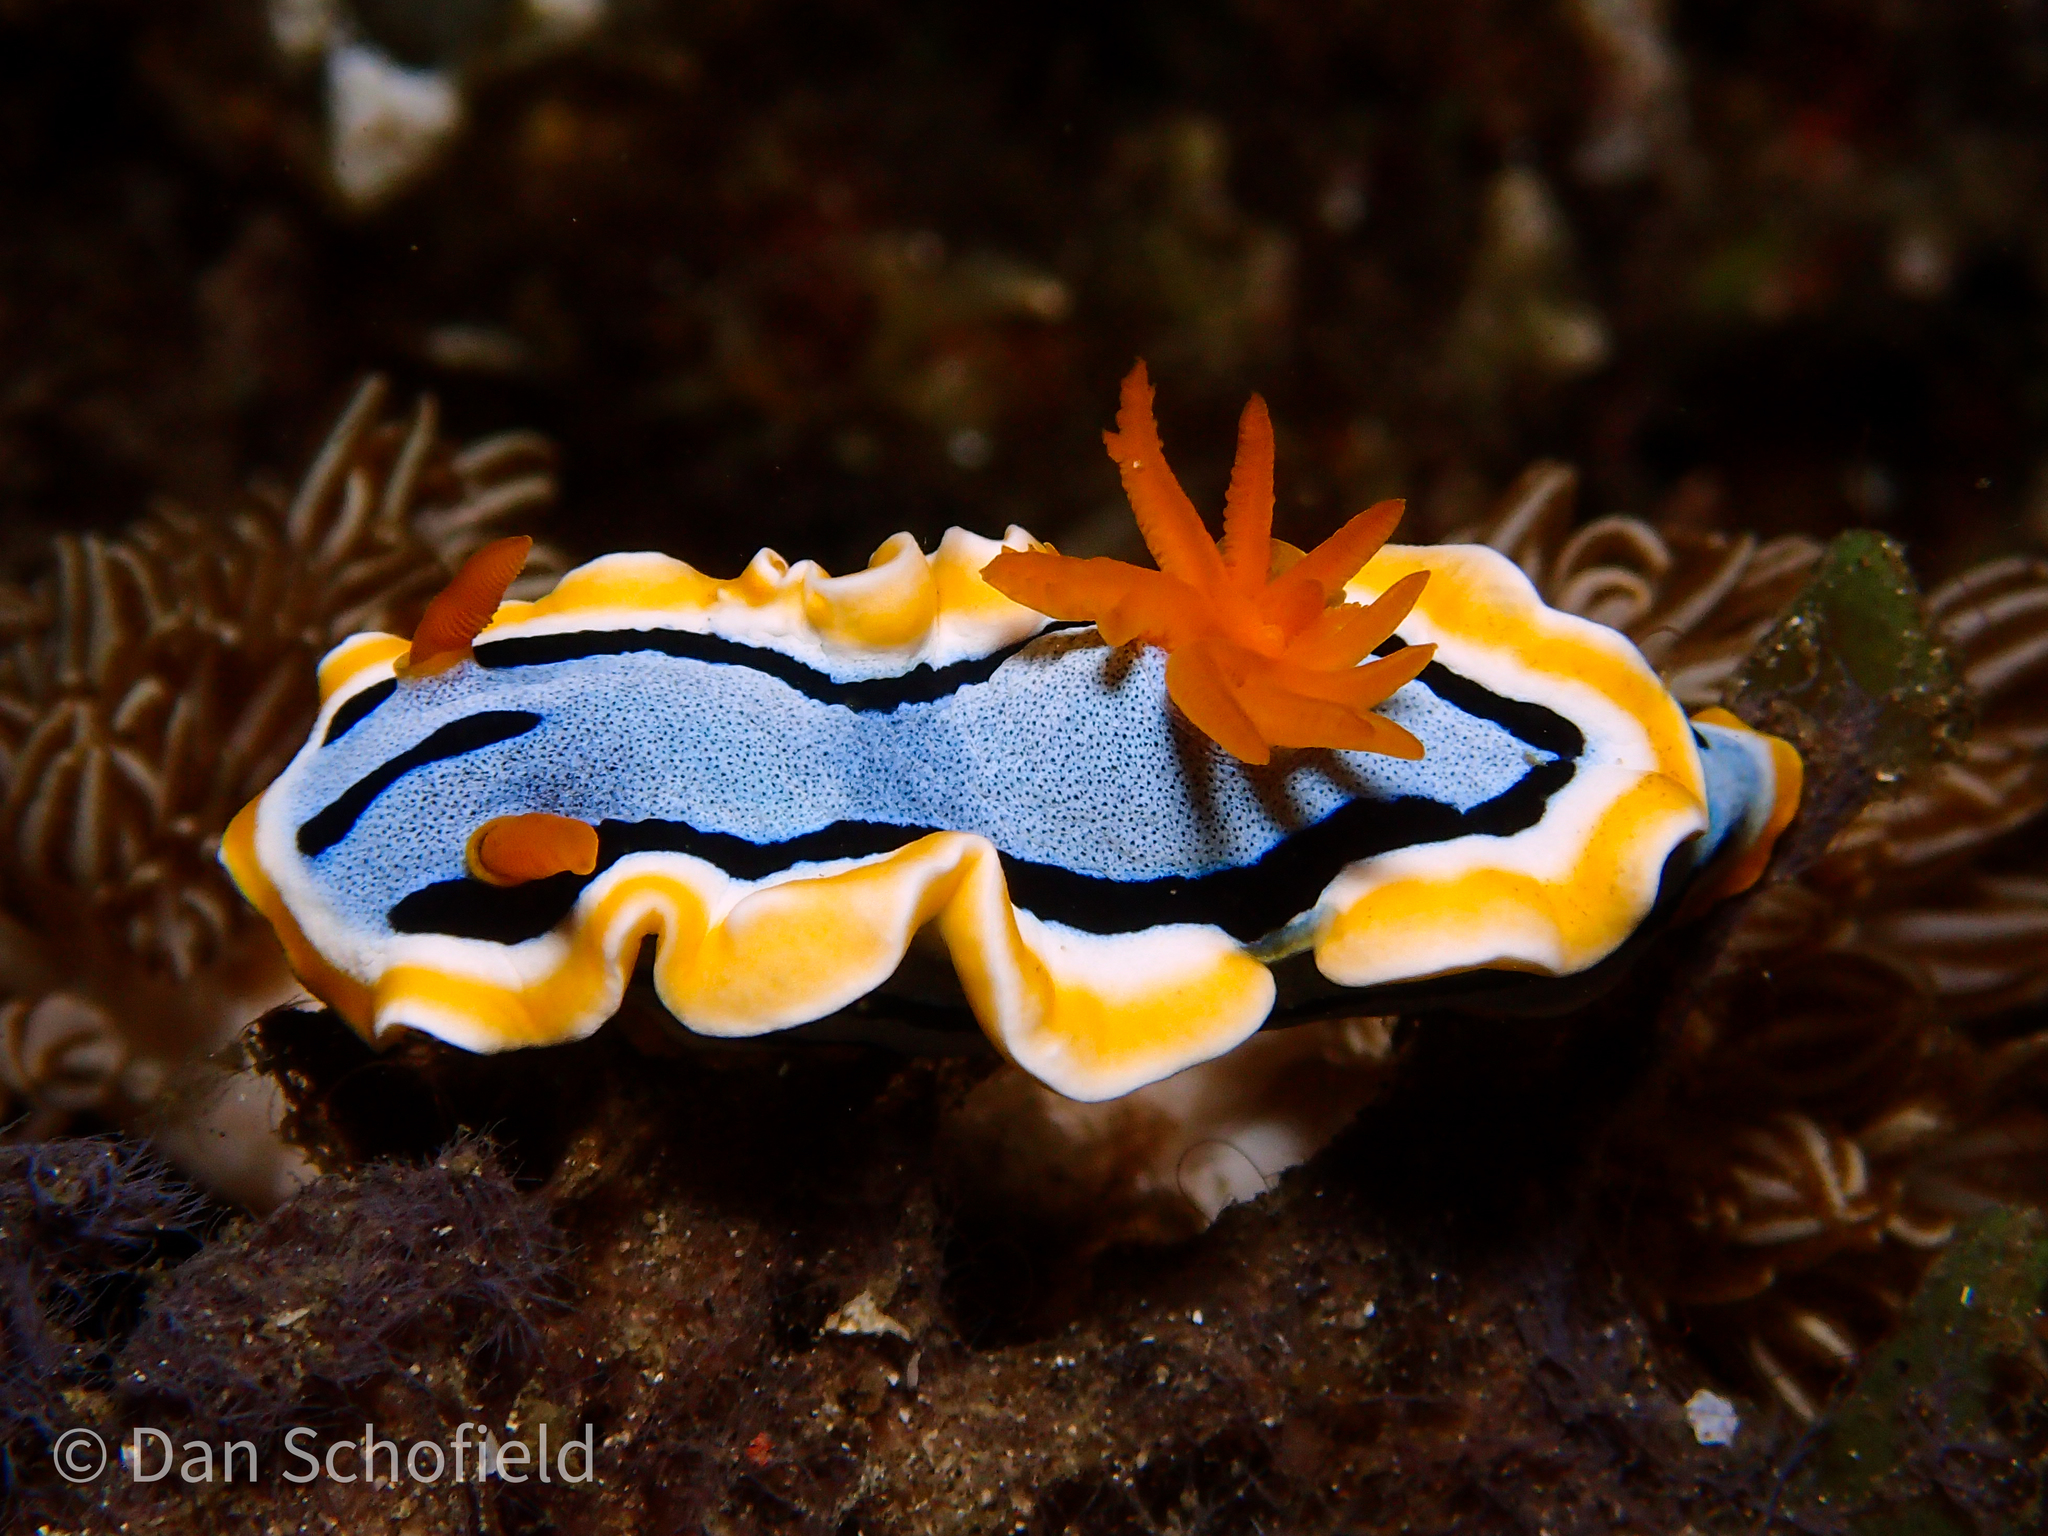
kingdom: Animalia
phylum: Mollusca
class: Gastropoda
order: Nudibranchia
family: Chromodorididae
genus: Chromodoris
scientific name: Chromodoris annae
